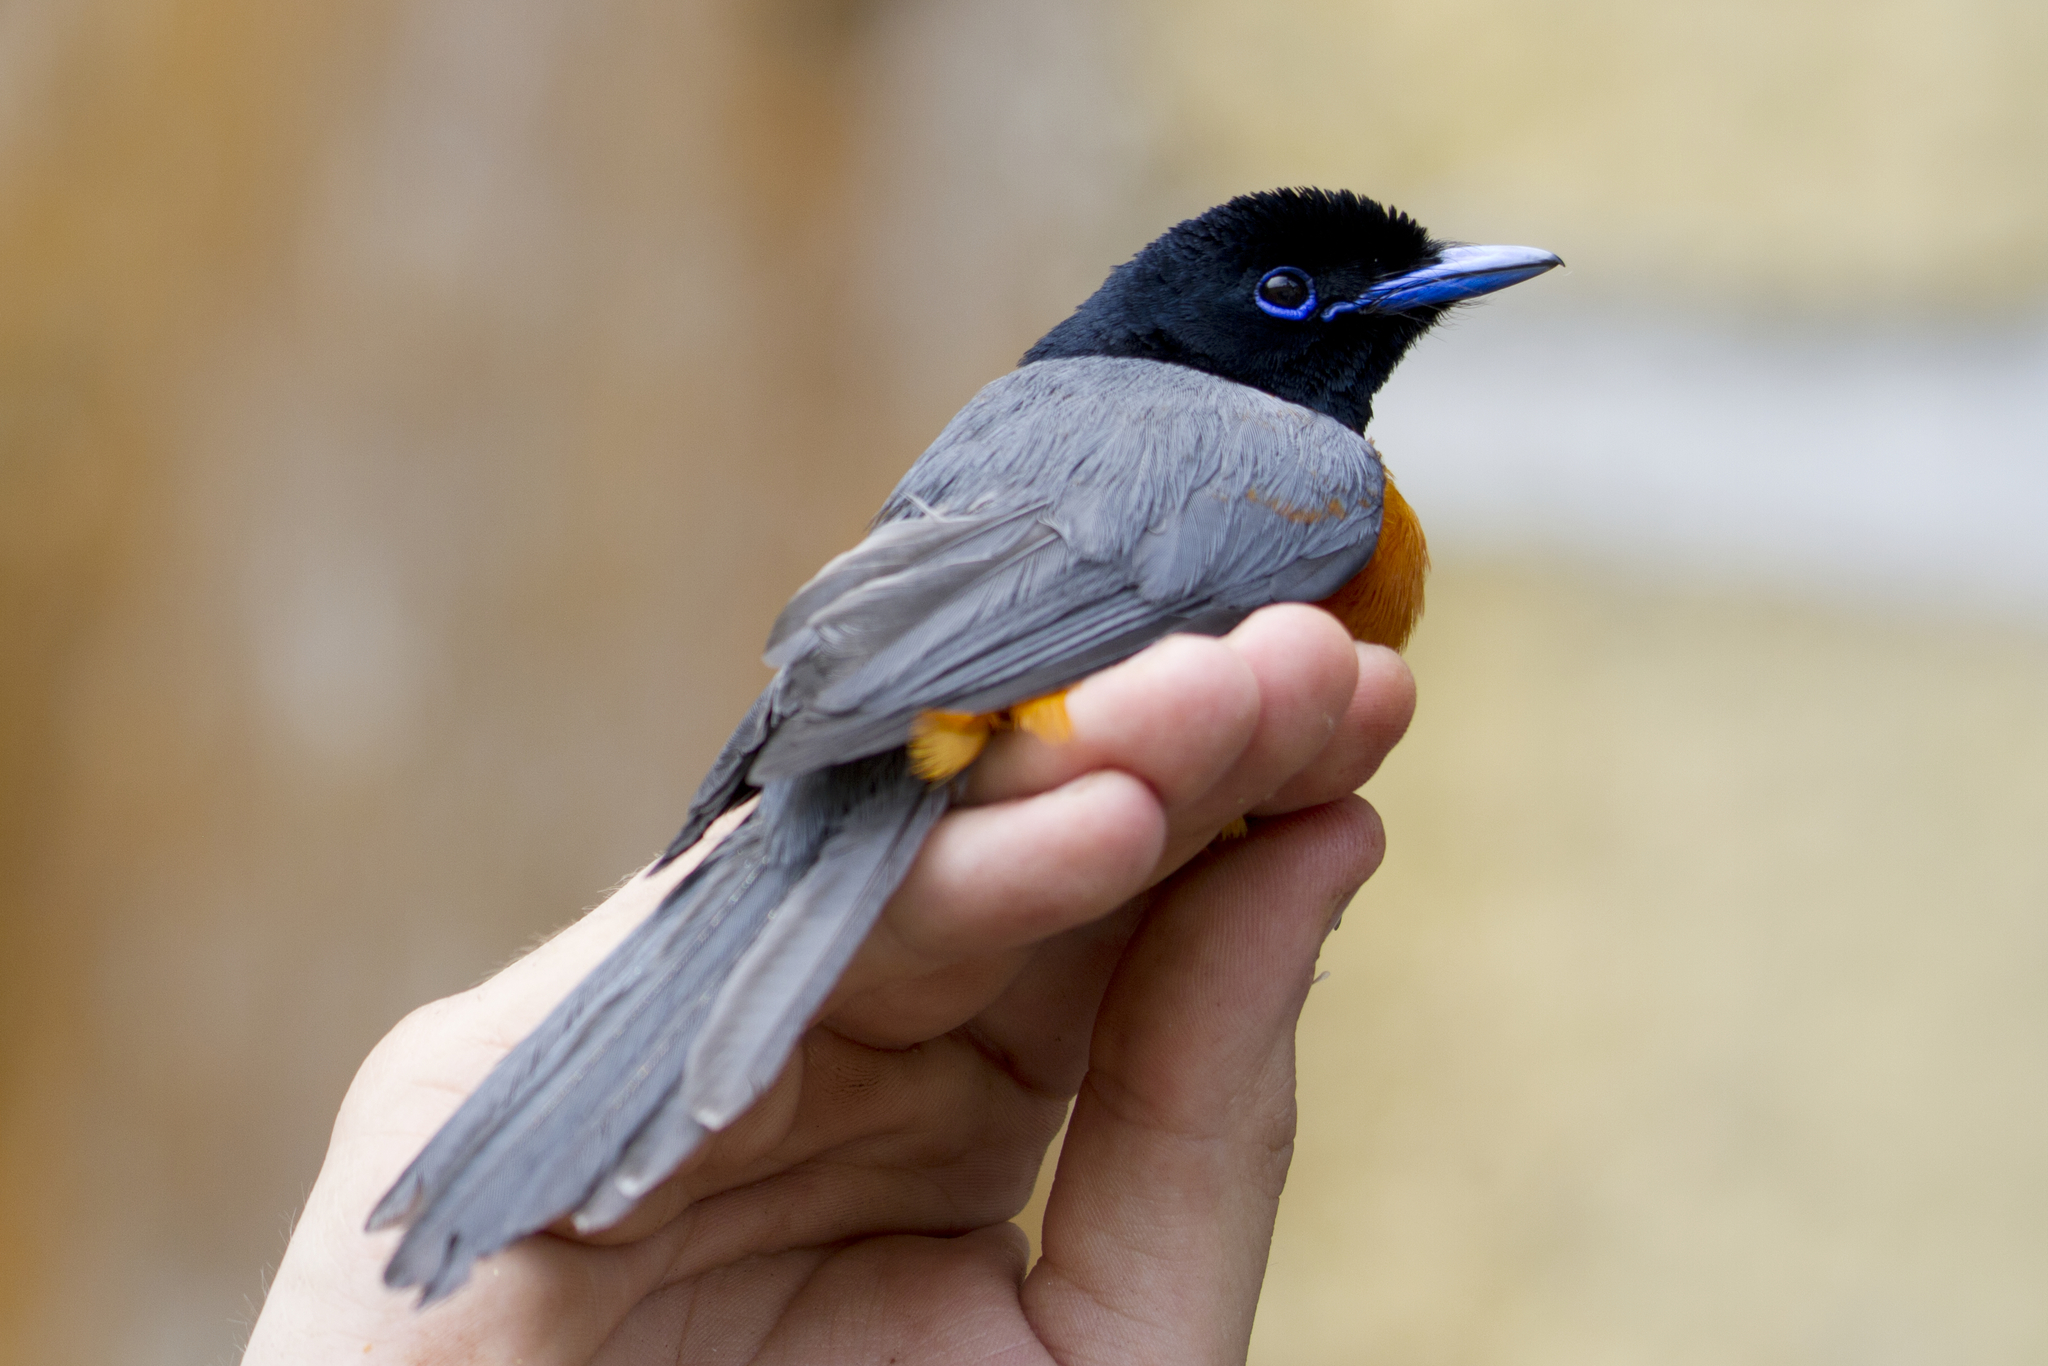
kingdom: Animalia
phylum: Chordata
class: Aves
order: Passeriformes
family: Monarchidae
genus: Terpsiphone
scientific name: Terpsiphone rufiventer
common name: Red-bellied paradise flycatcher
